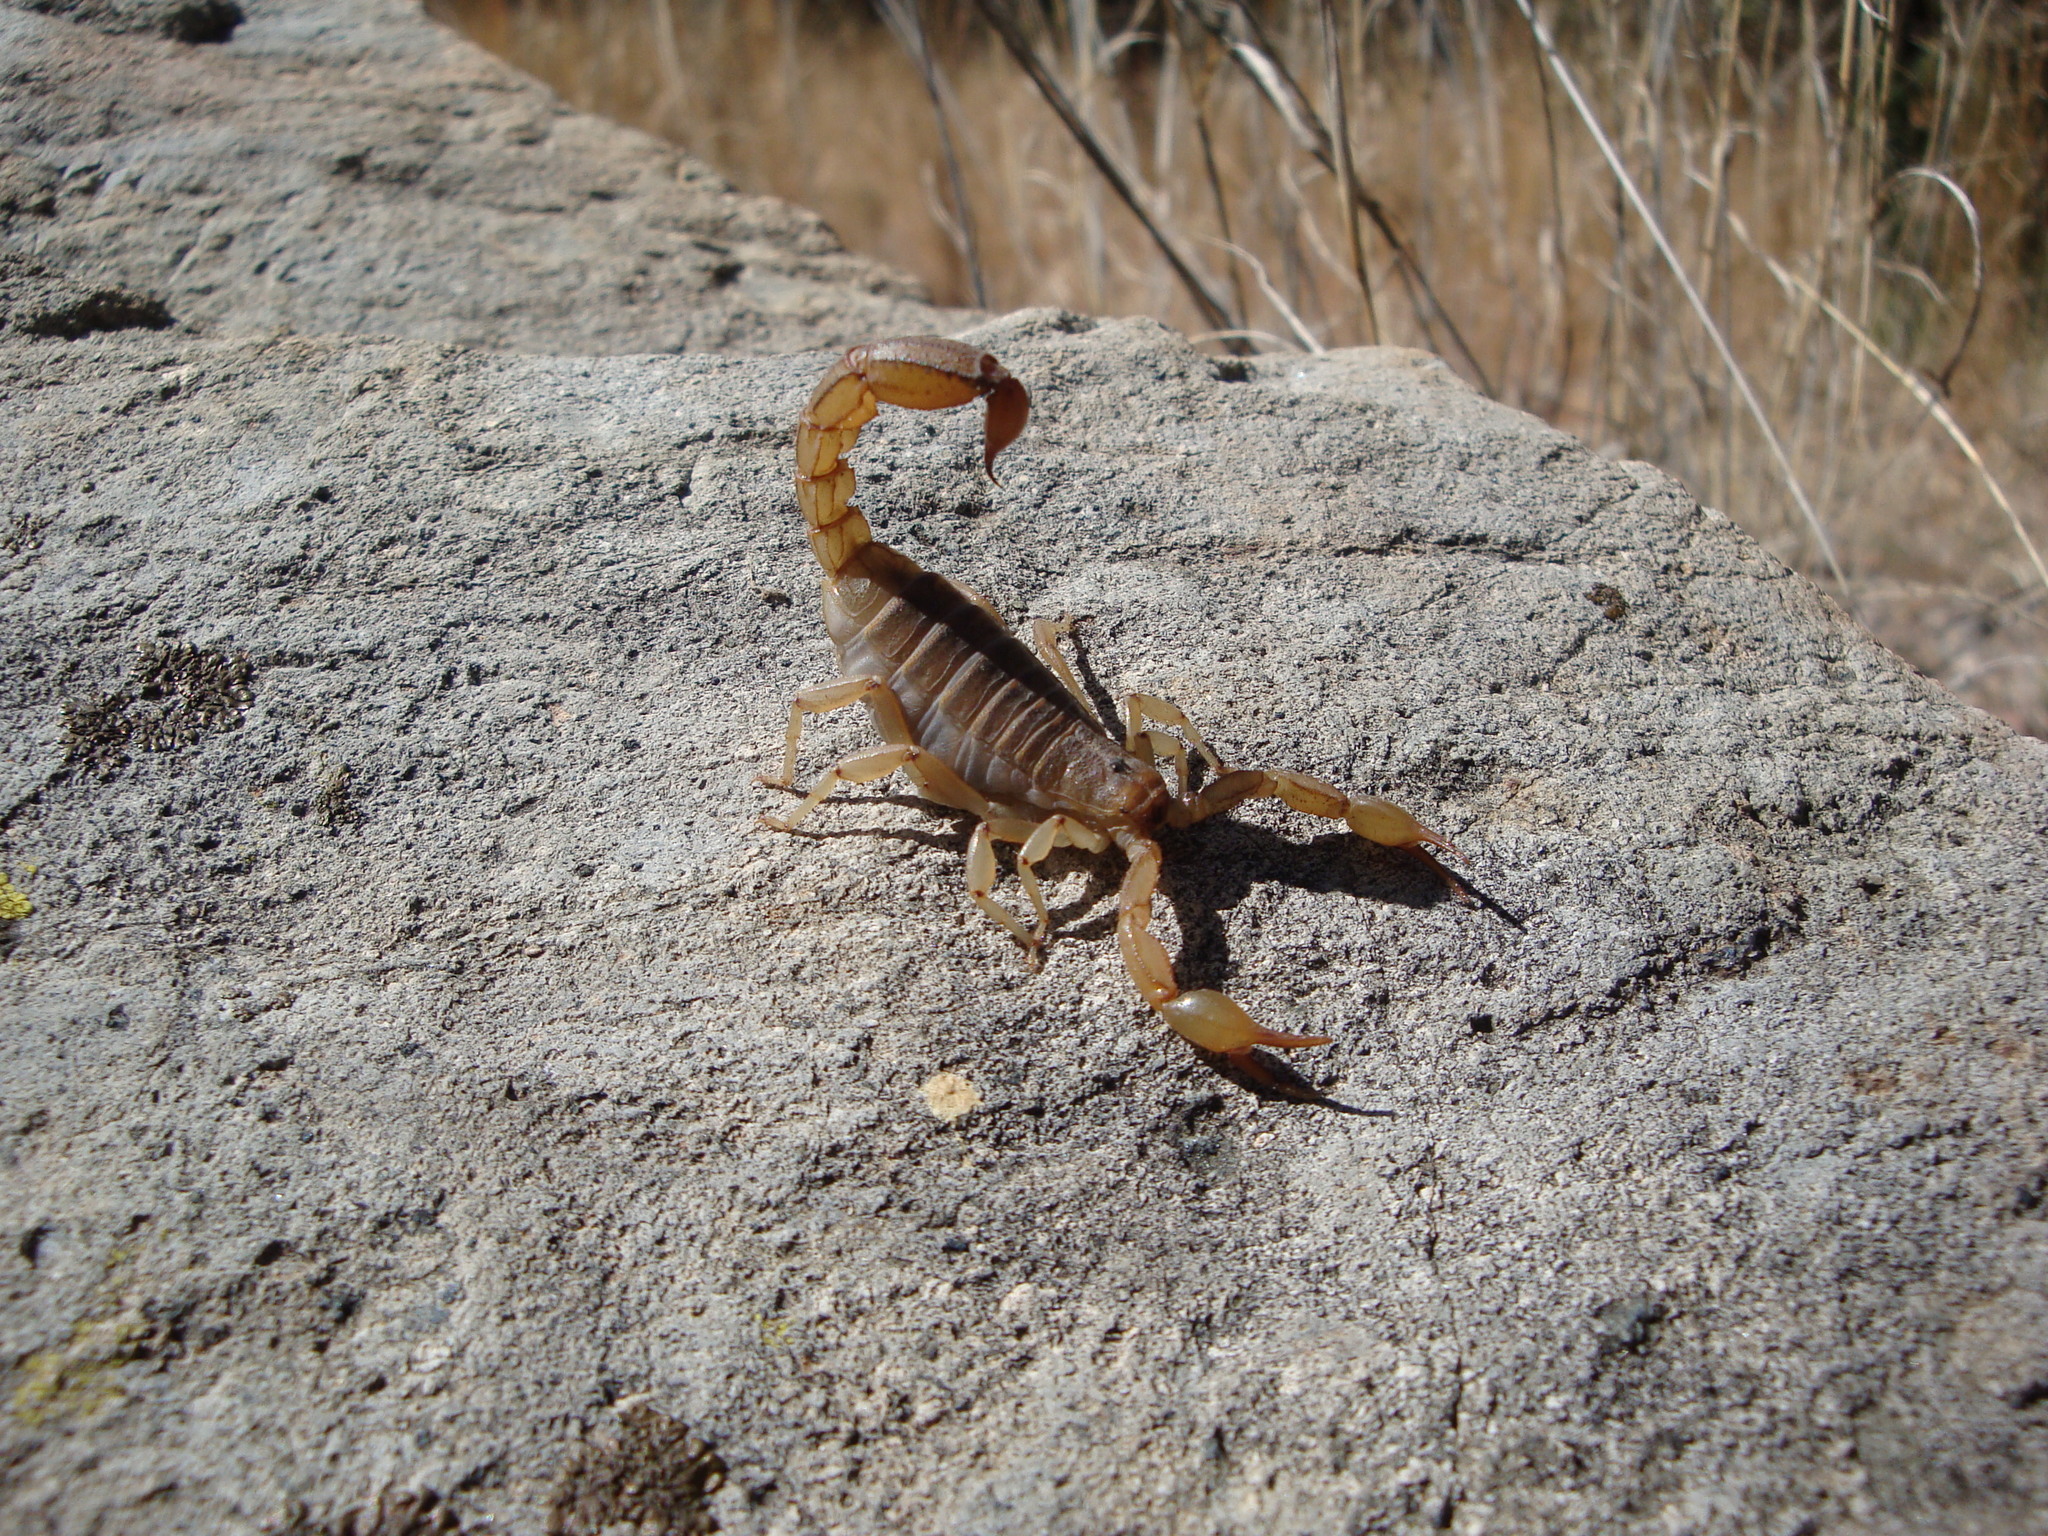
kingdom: Animalia
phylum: Arthropoda
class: Arachnida
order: Scorpiones
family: Vaejovidae
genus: Paravaejovis
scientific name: Paravaejovis spinigerus
